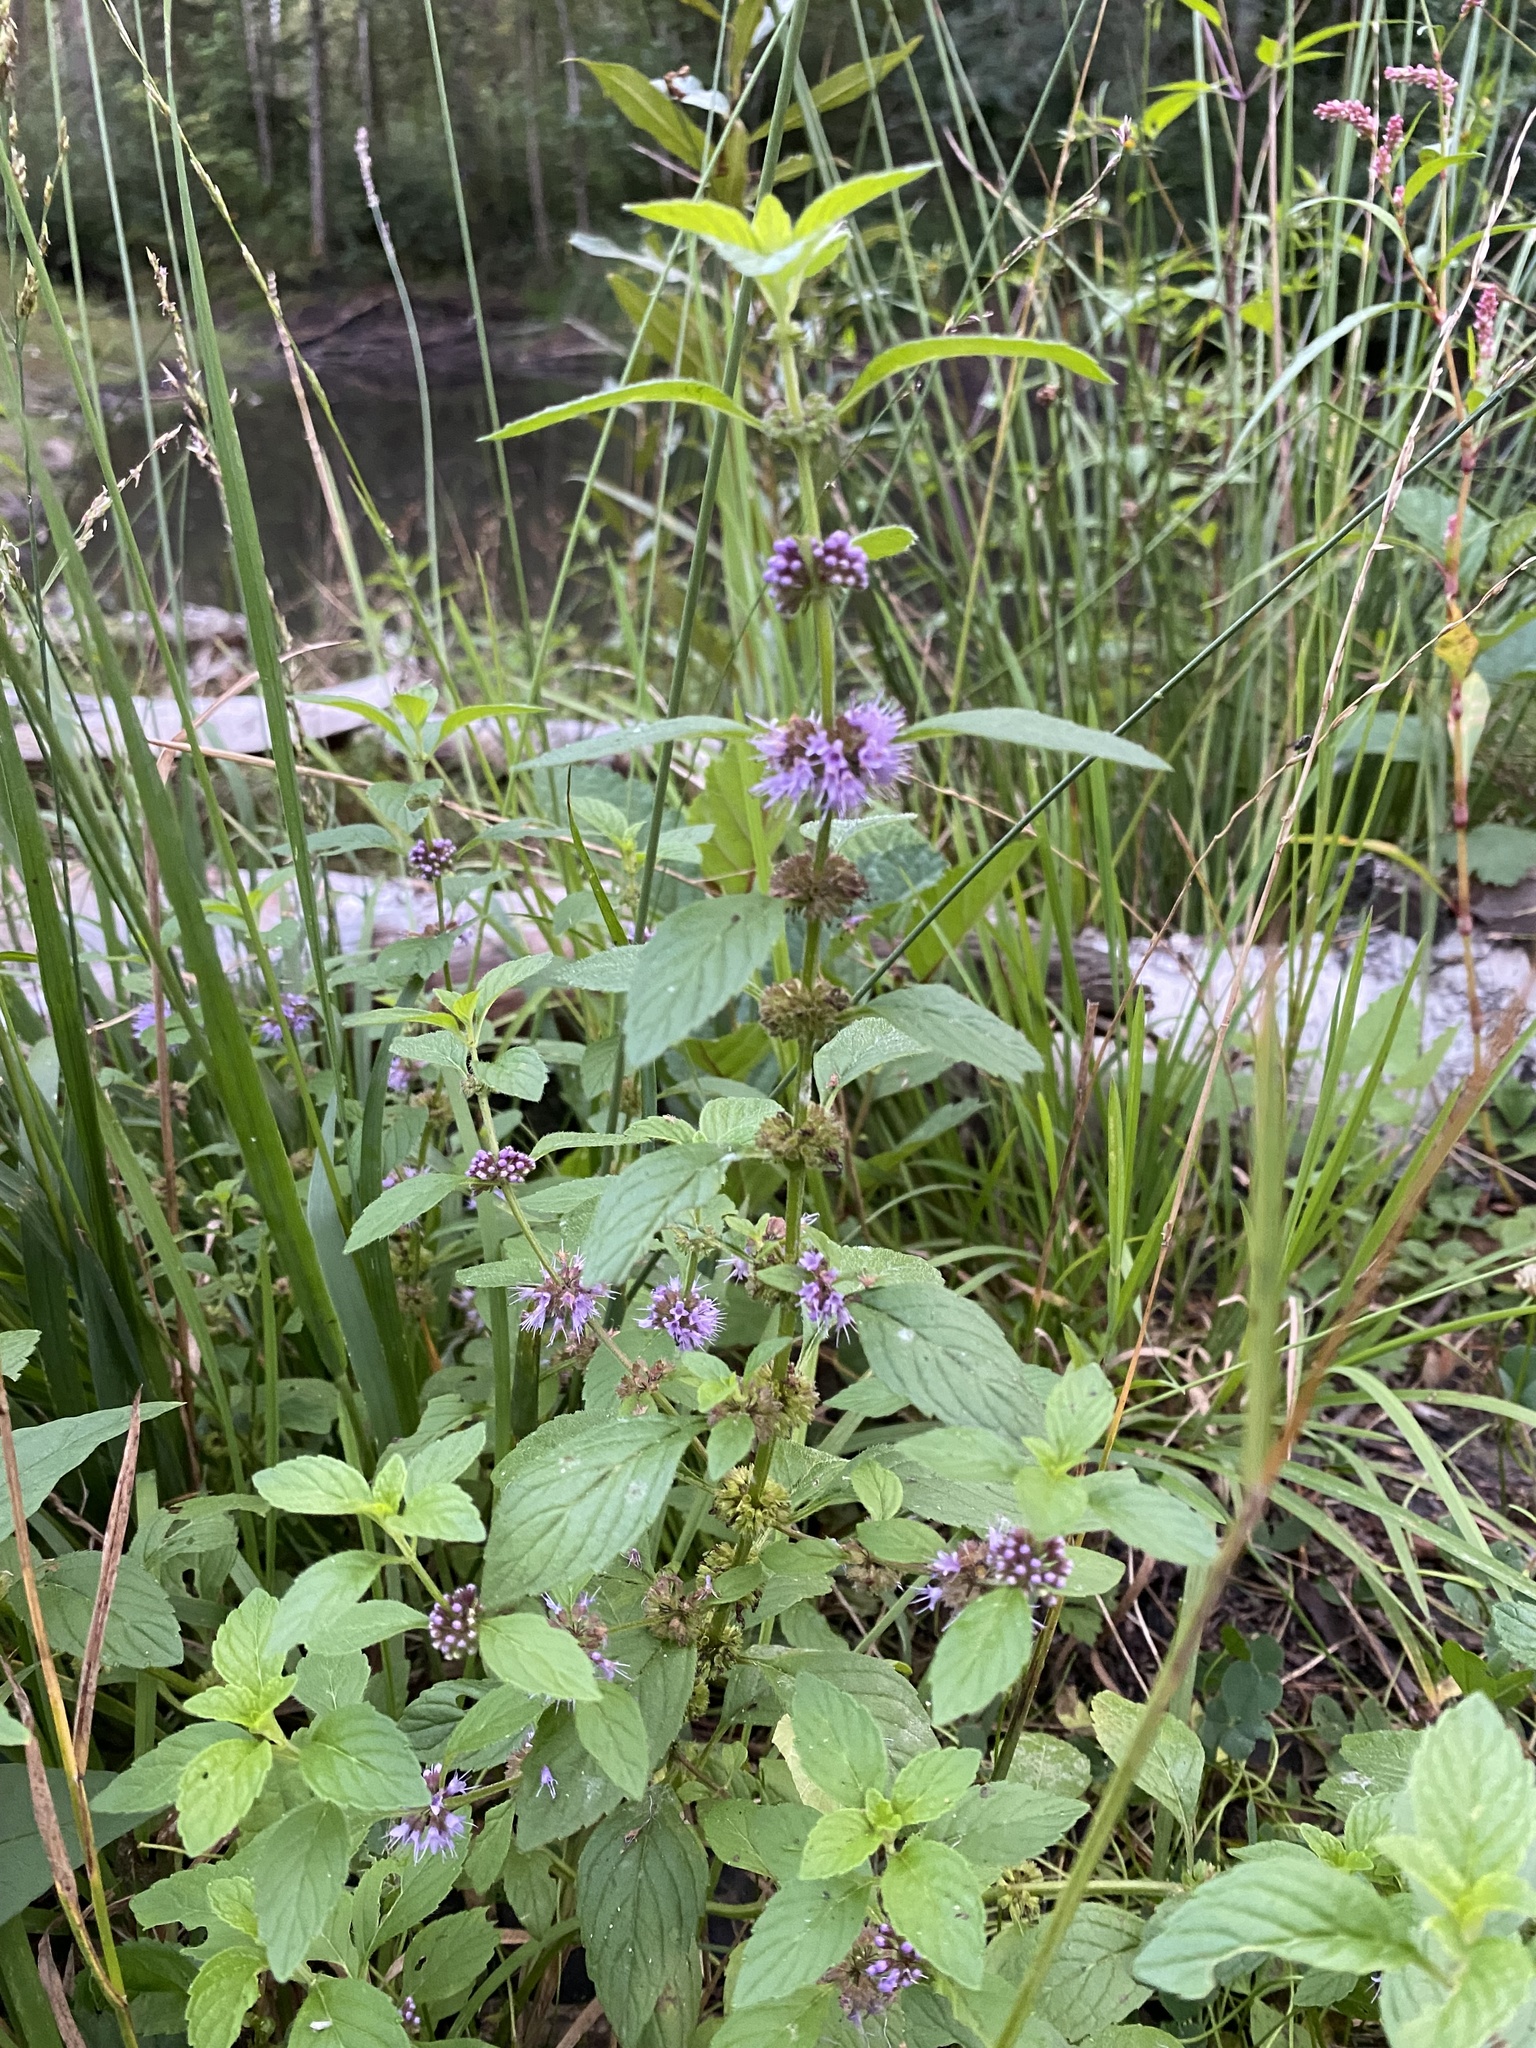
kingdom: Plantae
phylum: Tracheophyta
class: Magnoliopsida
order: Lamiales
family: Lamiaceae
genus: Mentha
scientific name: Mentha arvensis
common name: Corn mint
